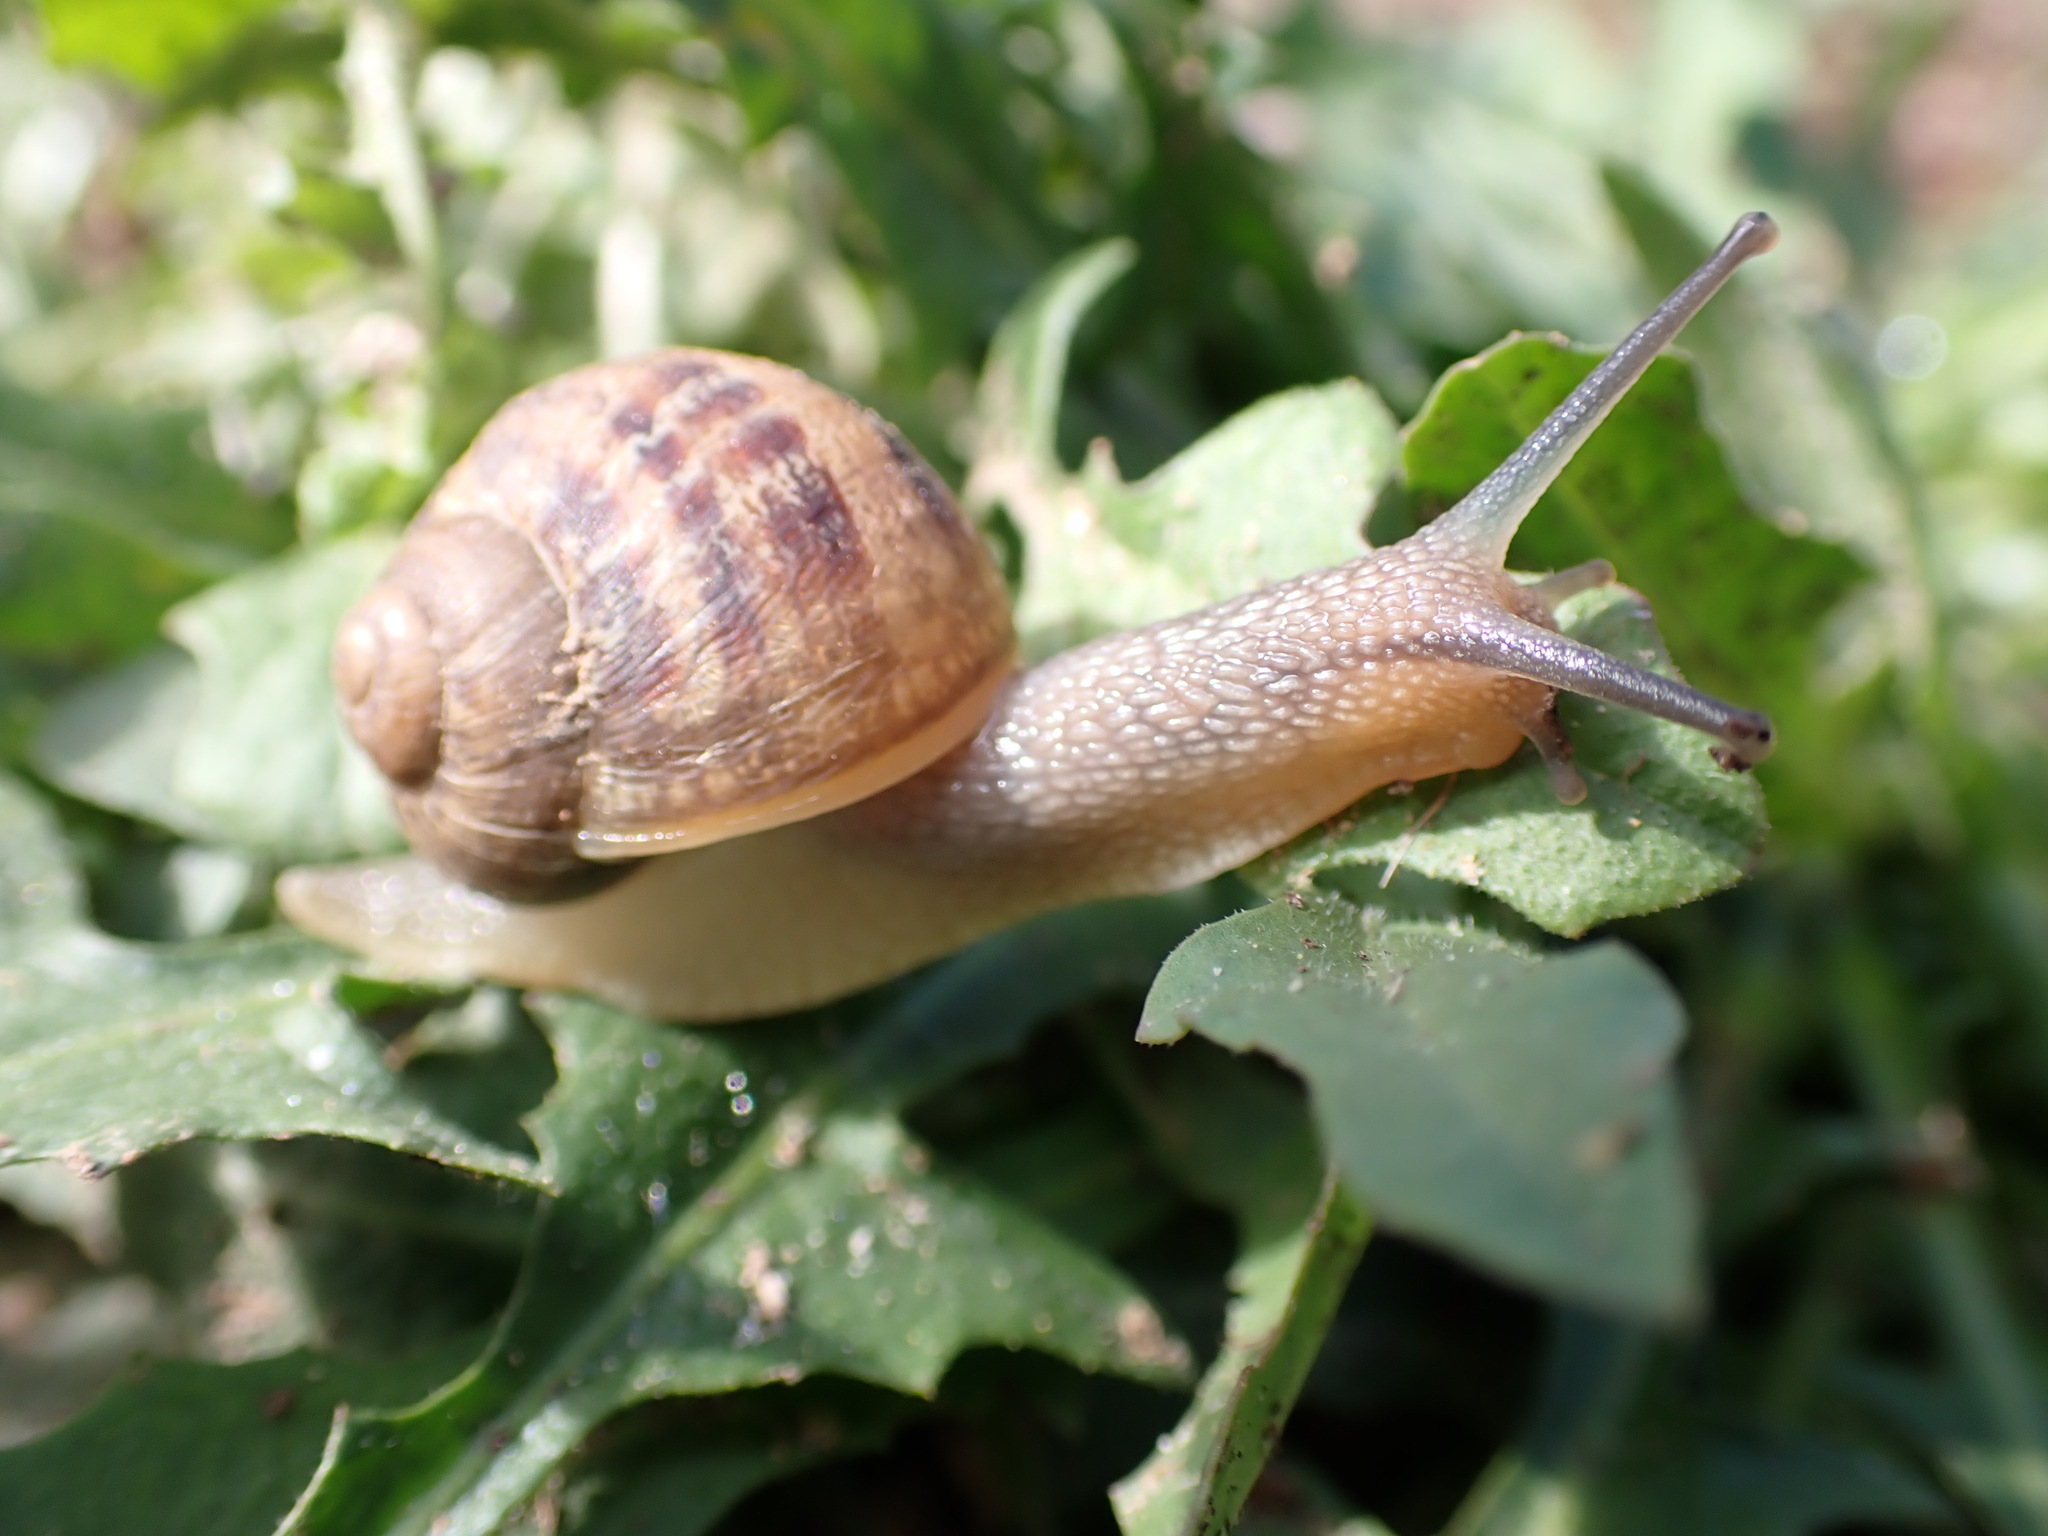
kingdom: Animalia
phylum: Mollusca
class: Gastropoda
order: Stylommatophora
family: Helicidae
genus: Cornu
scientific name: Cornu aspersum
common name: Brown garden snail
